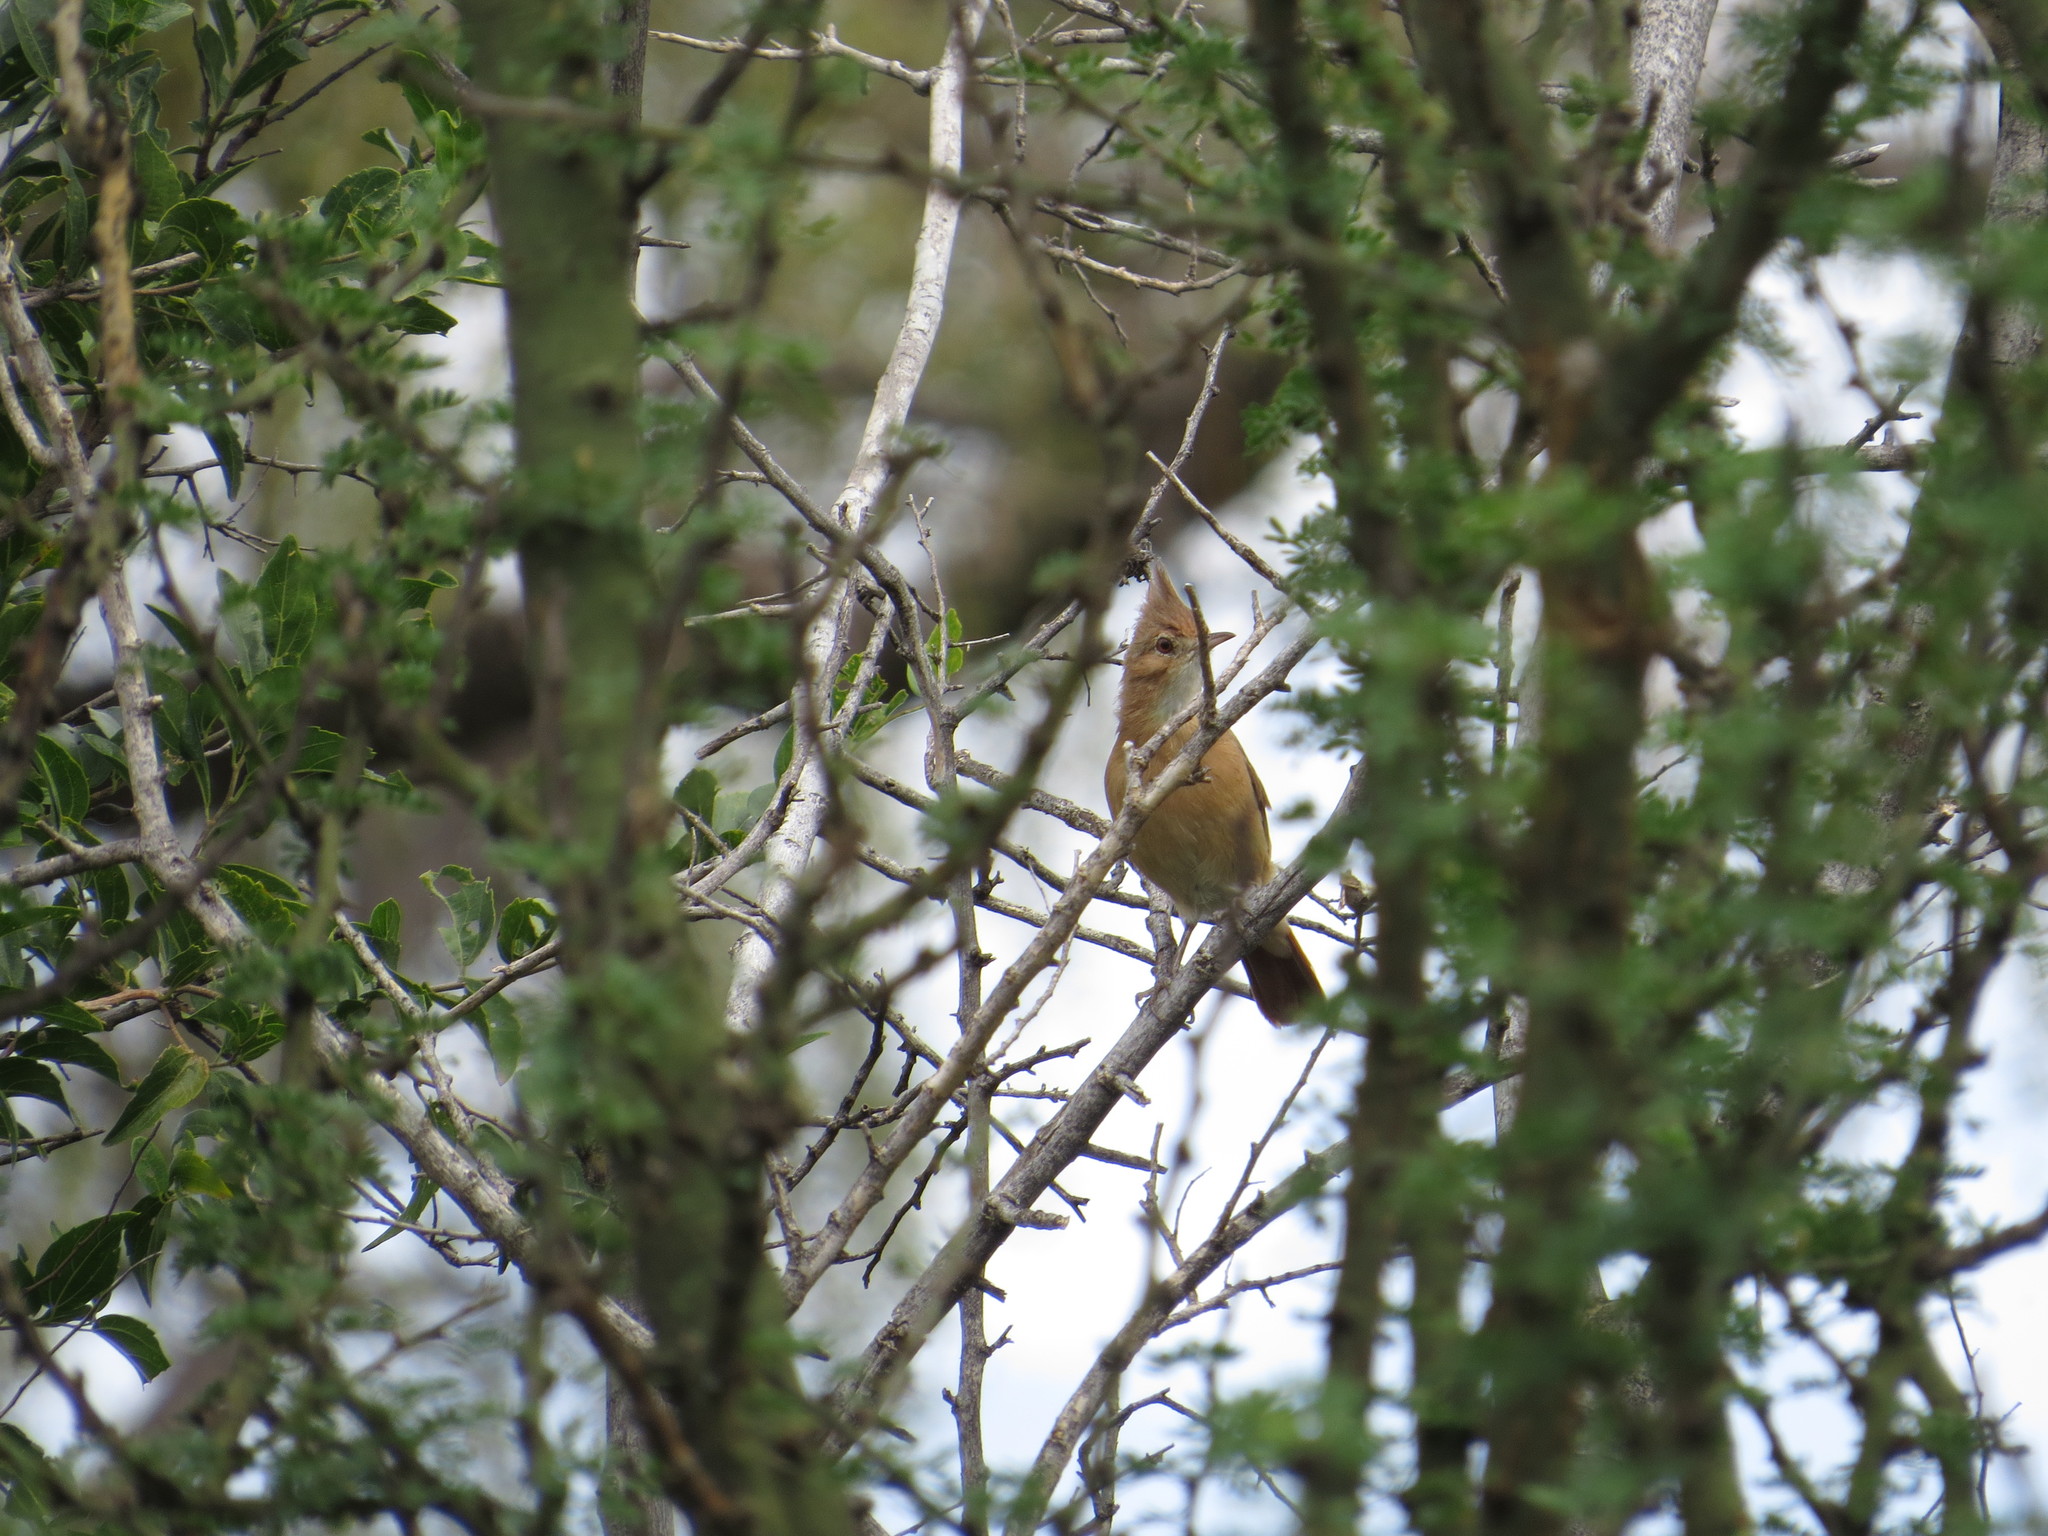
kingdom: Animalia
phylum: Chordata
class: Aves
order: Passeriformes
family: Furnariidae
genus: Furnarius
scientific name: Furnarius cristatus
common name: Crested hornero
